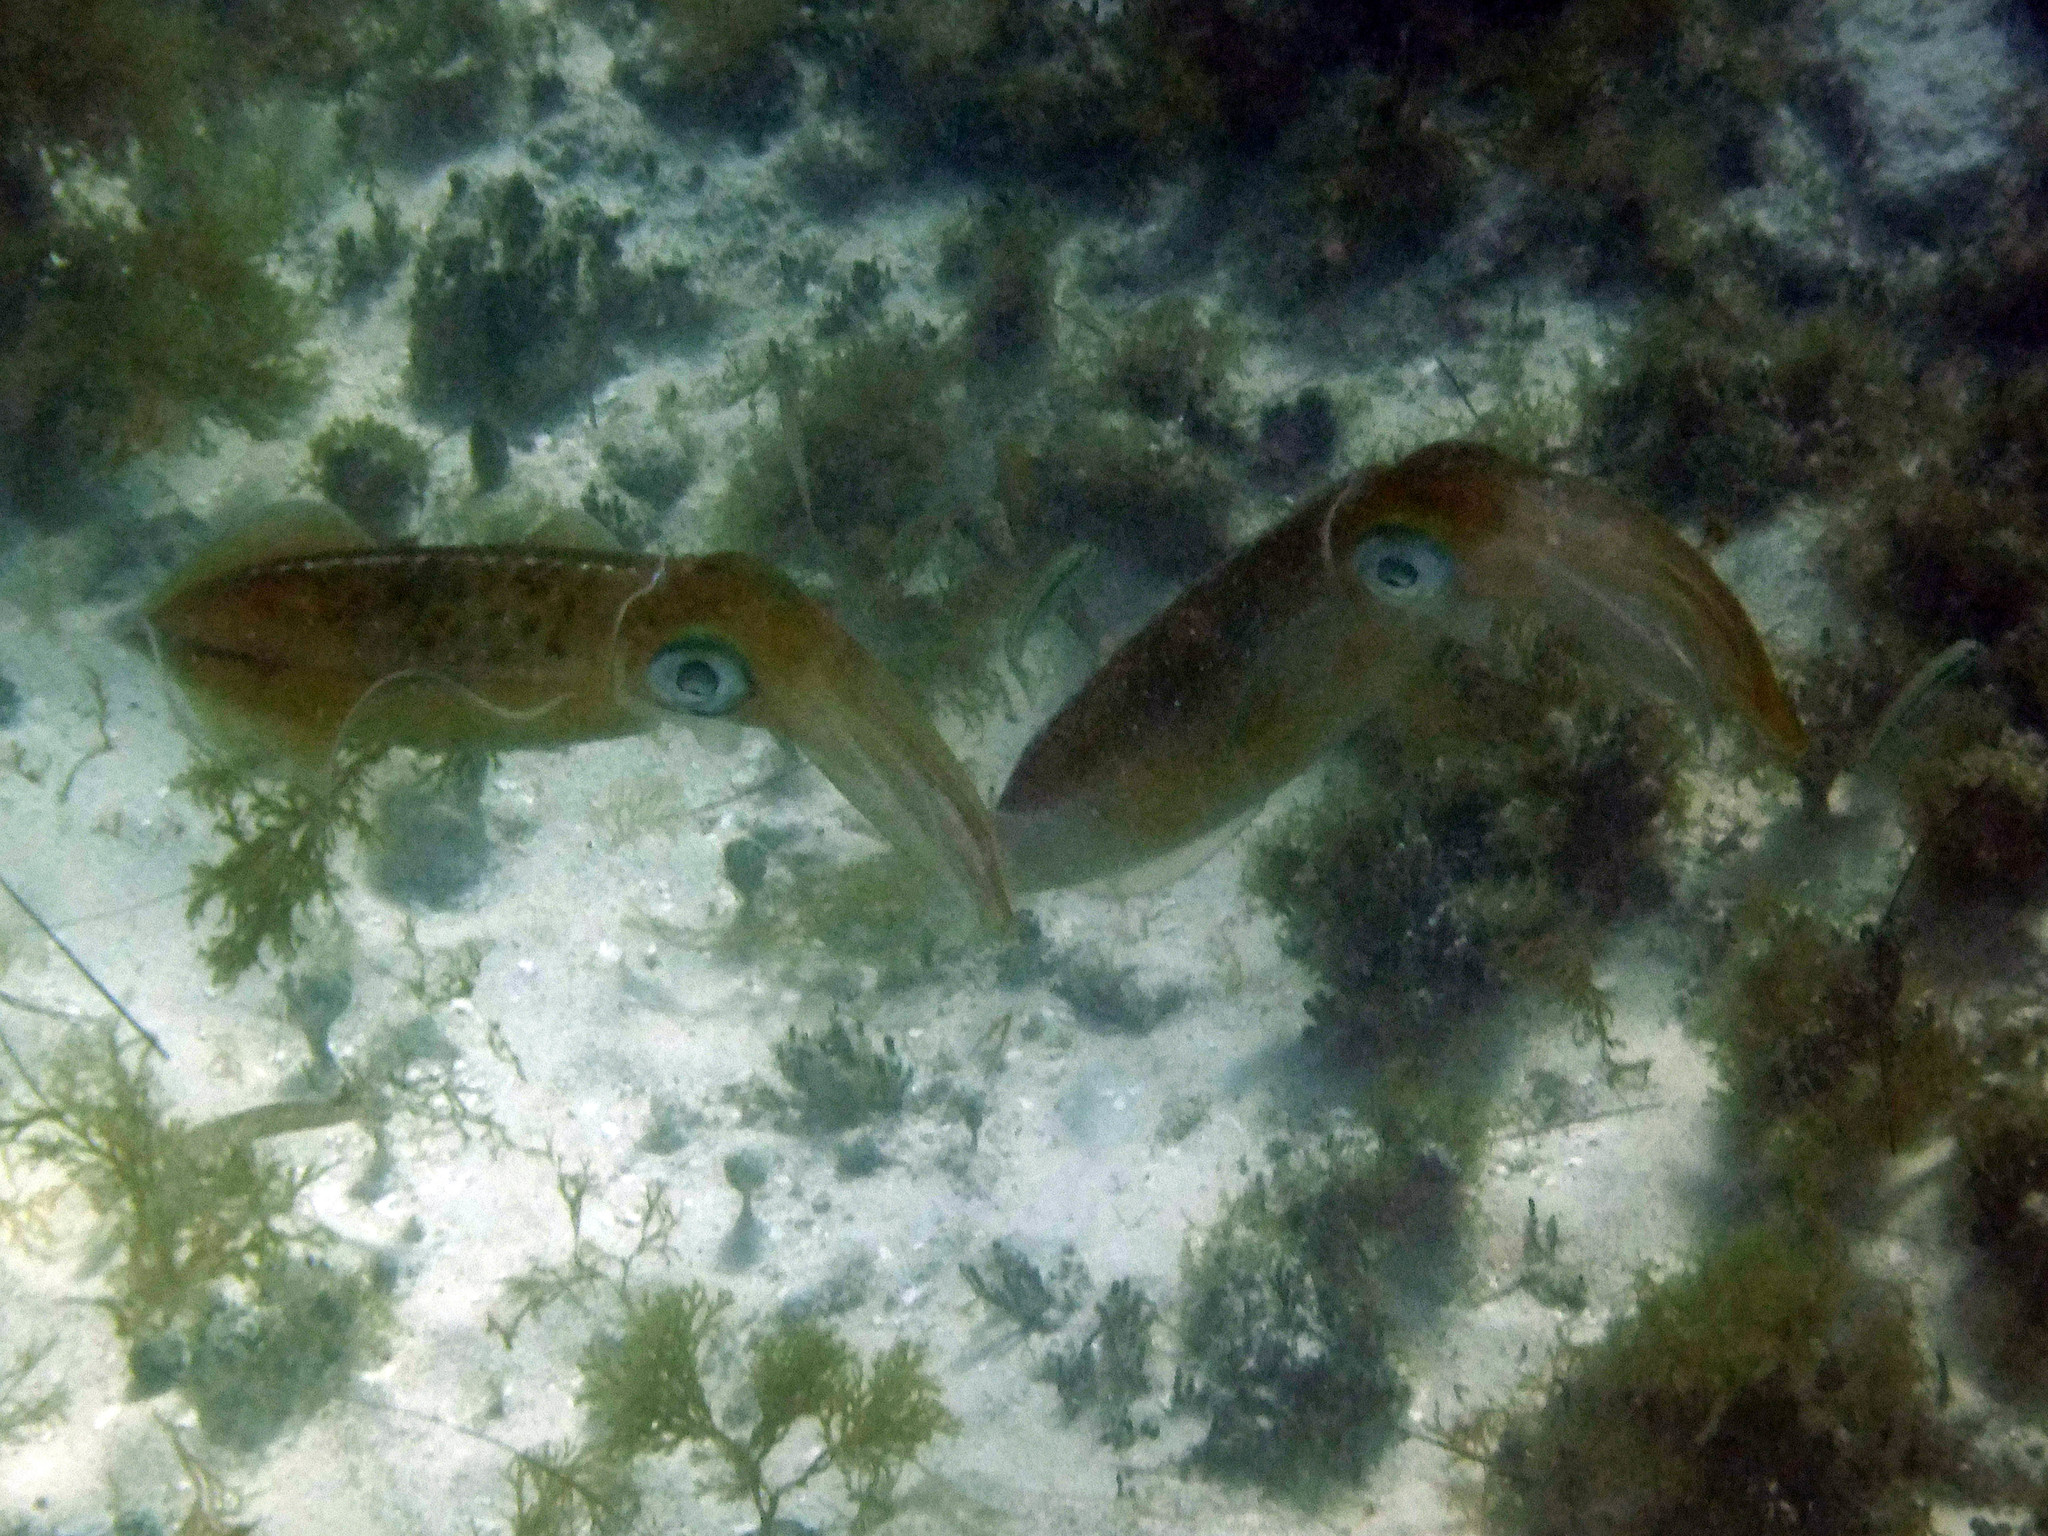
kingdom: Animalia
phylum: Mollusca
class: Cephalopoda
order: Myopsida
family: Loliginidae
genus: Sepioteuthis
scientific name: Sepioteuthis sepioidea
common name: Caribbean reef squid
